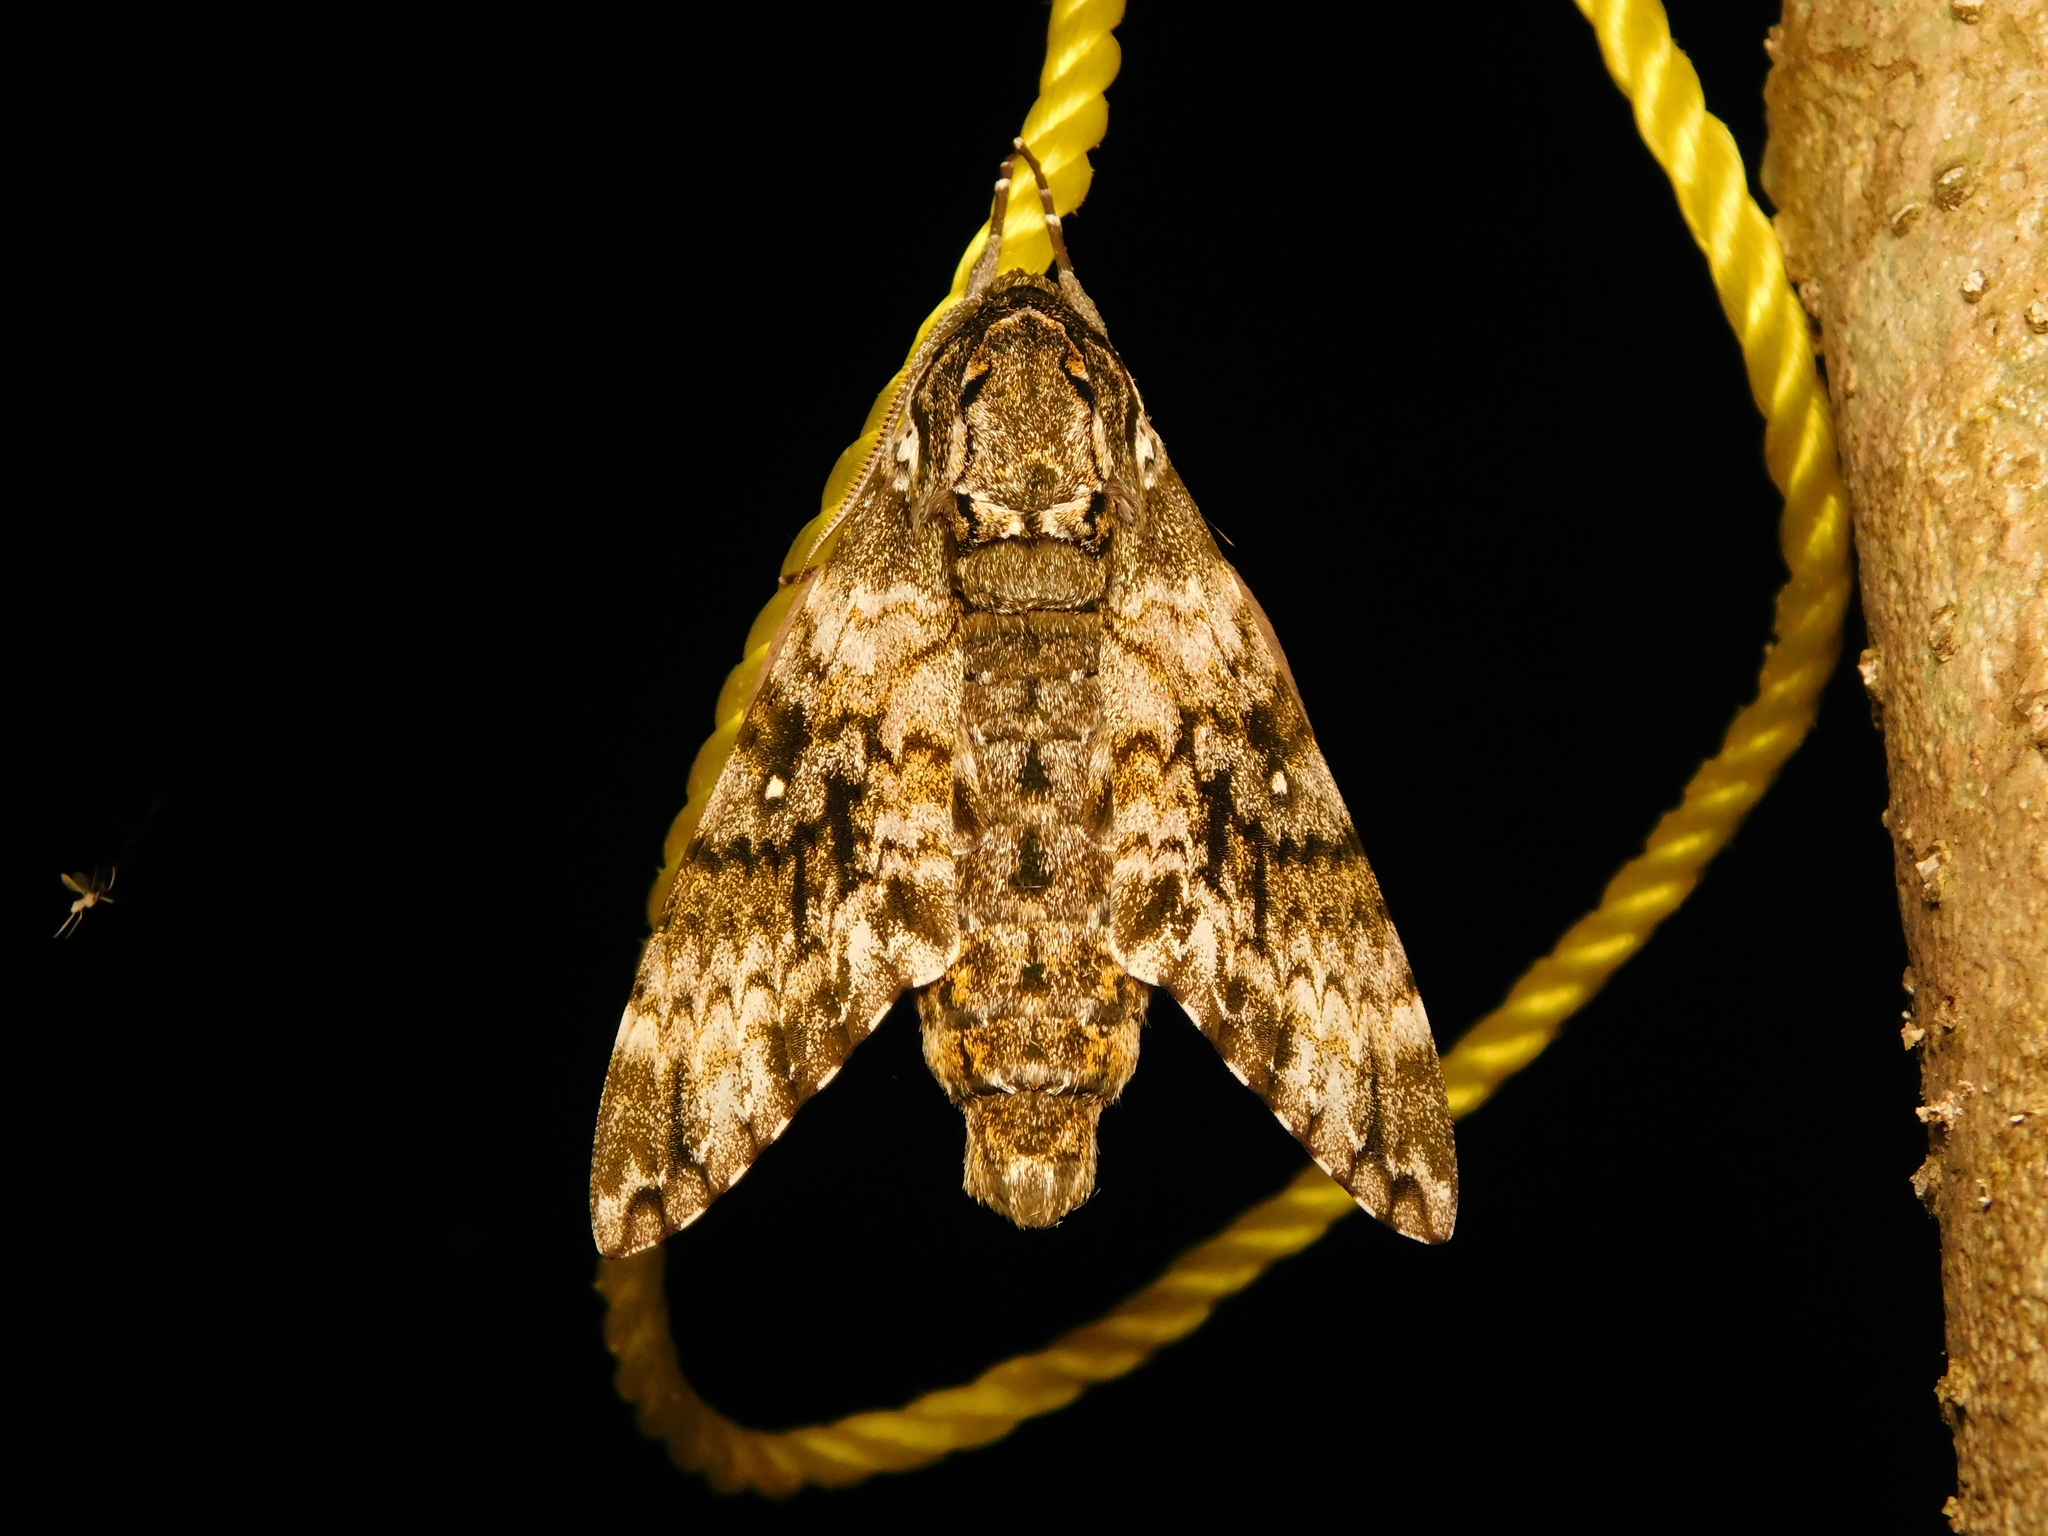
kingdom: Animalia
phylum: Arthropoda
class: Insecta
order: Lepidoptera
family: Sphingidae
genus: Dolbina
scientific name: Dolbina manjunatha
